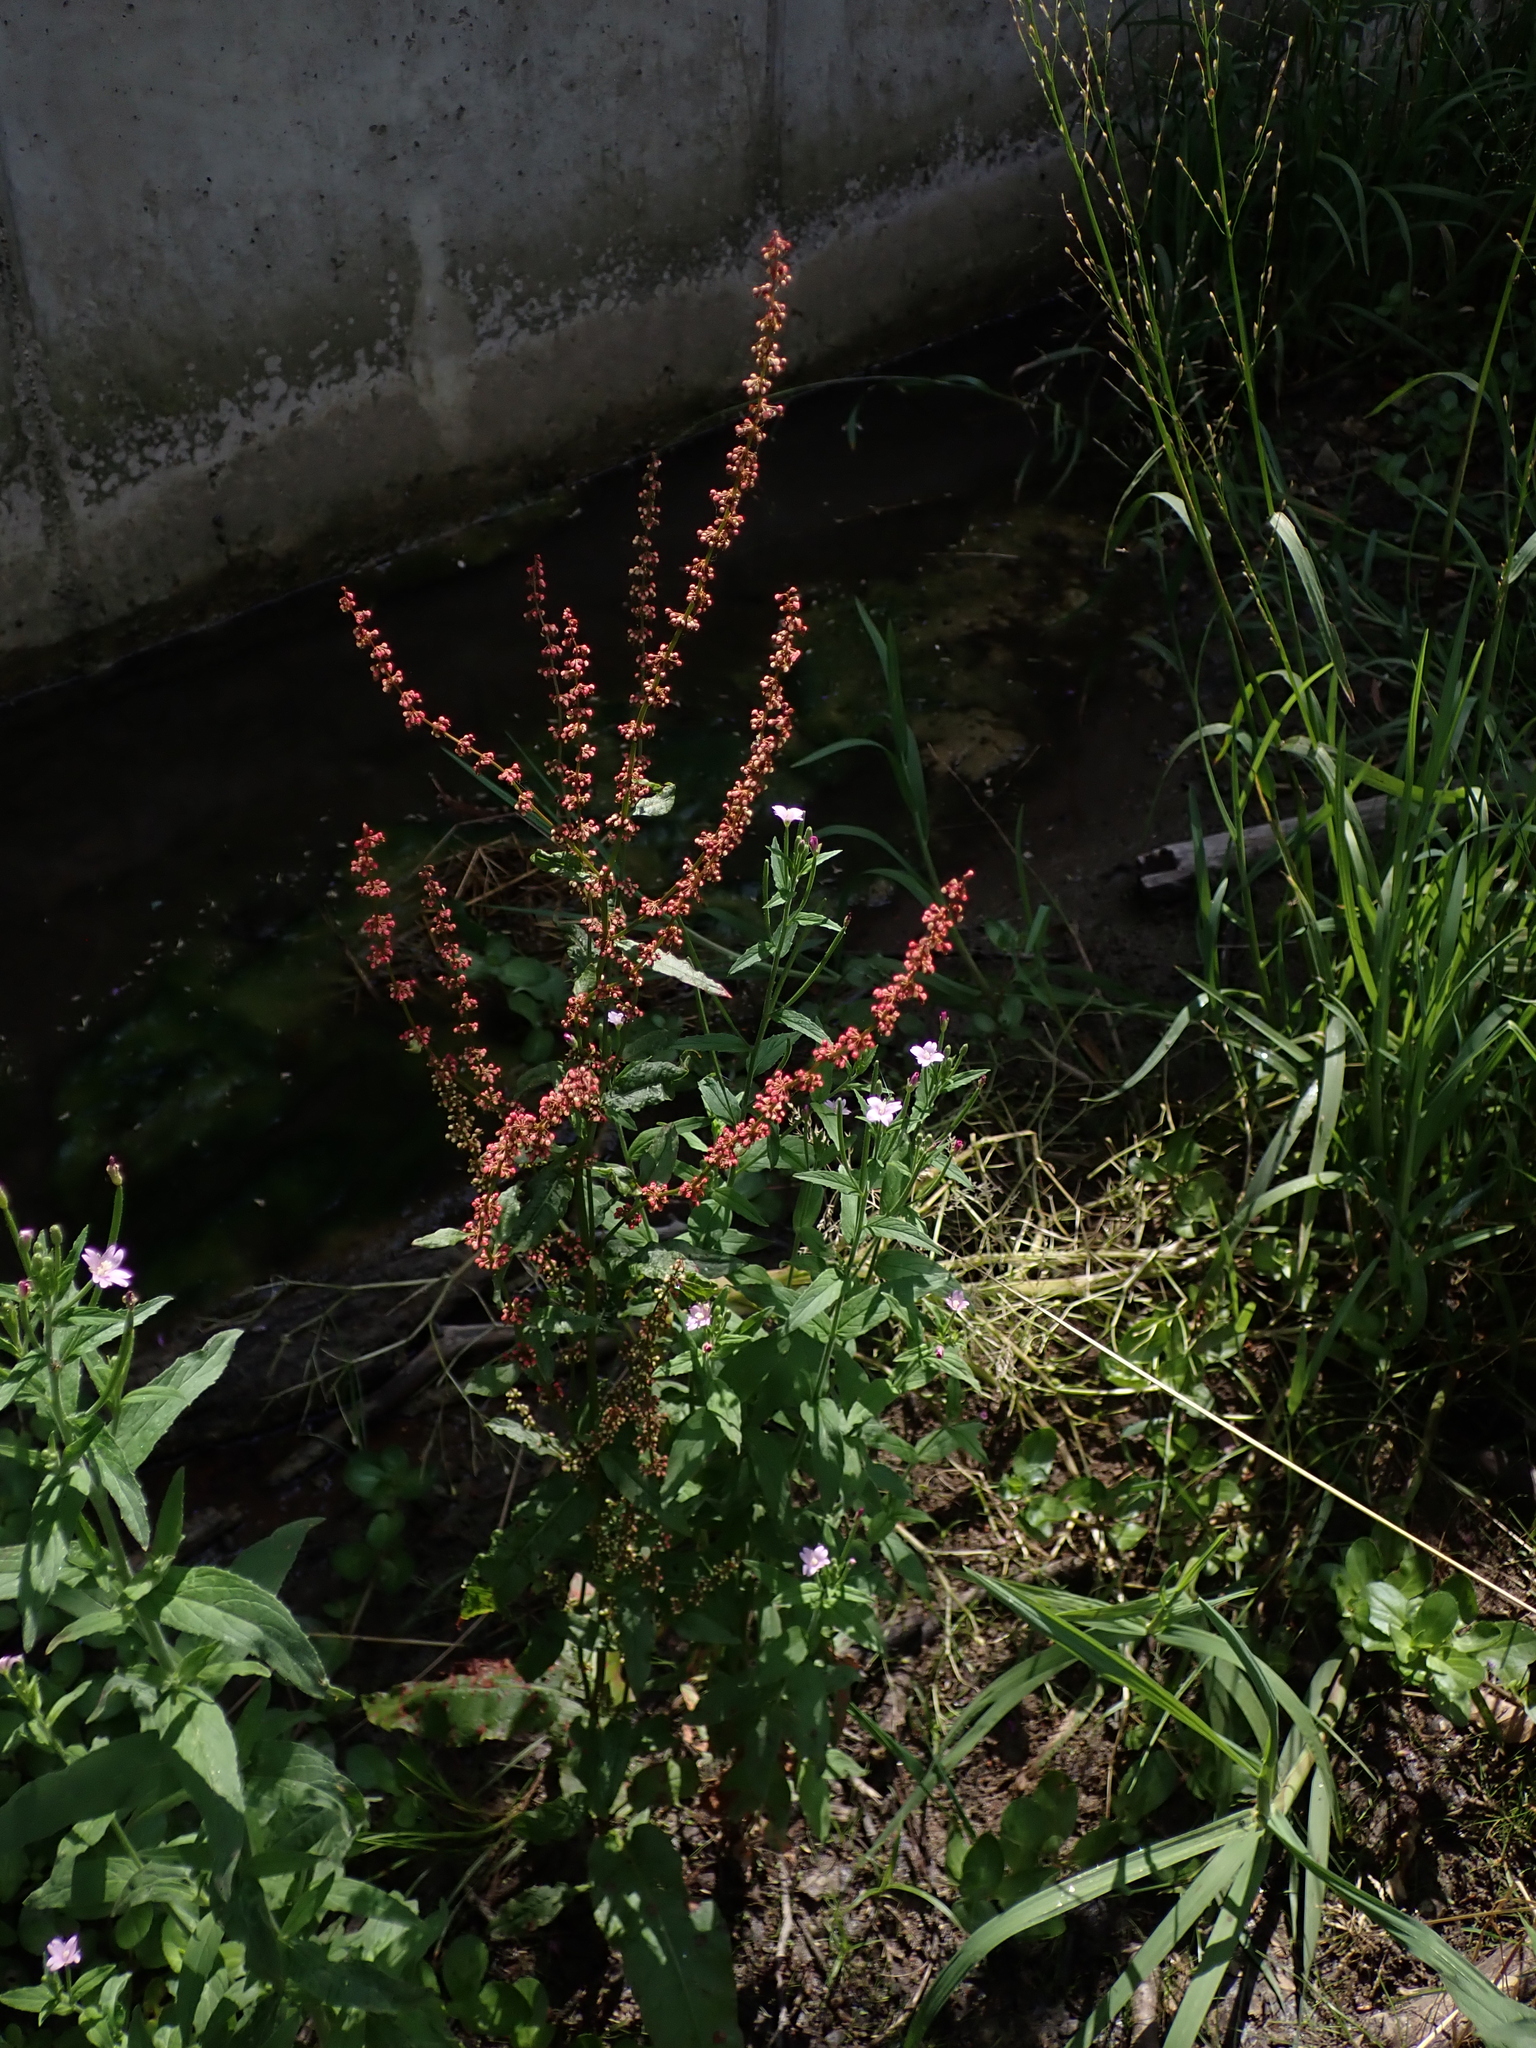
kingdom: Plantae
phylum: Tracheophyta
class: Magnoliopsida
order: Caryophyllales
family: Polygonaceae
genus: Rumex
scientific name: Rumex sanguineus
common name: Wood dock
